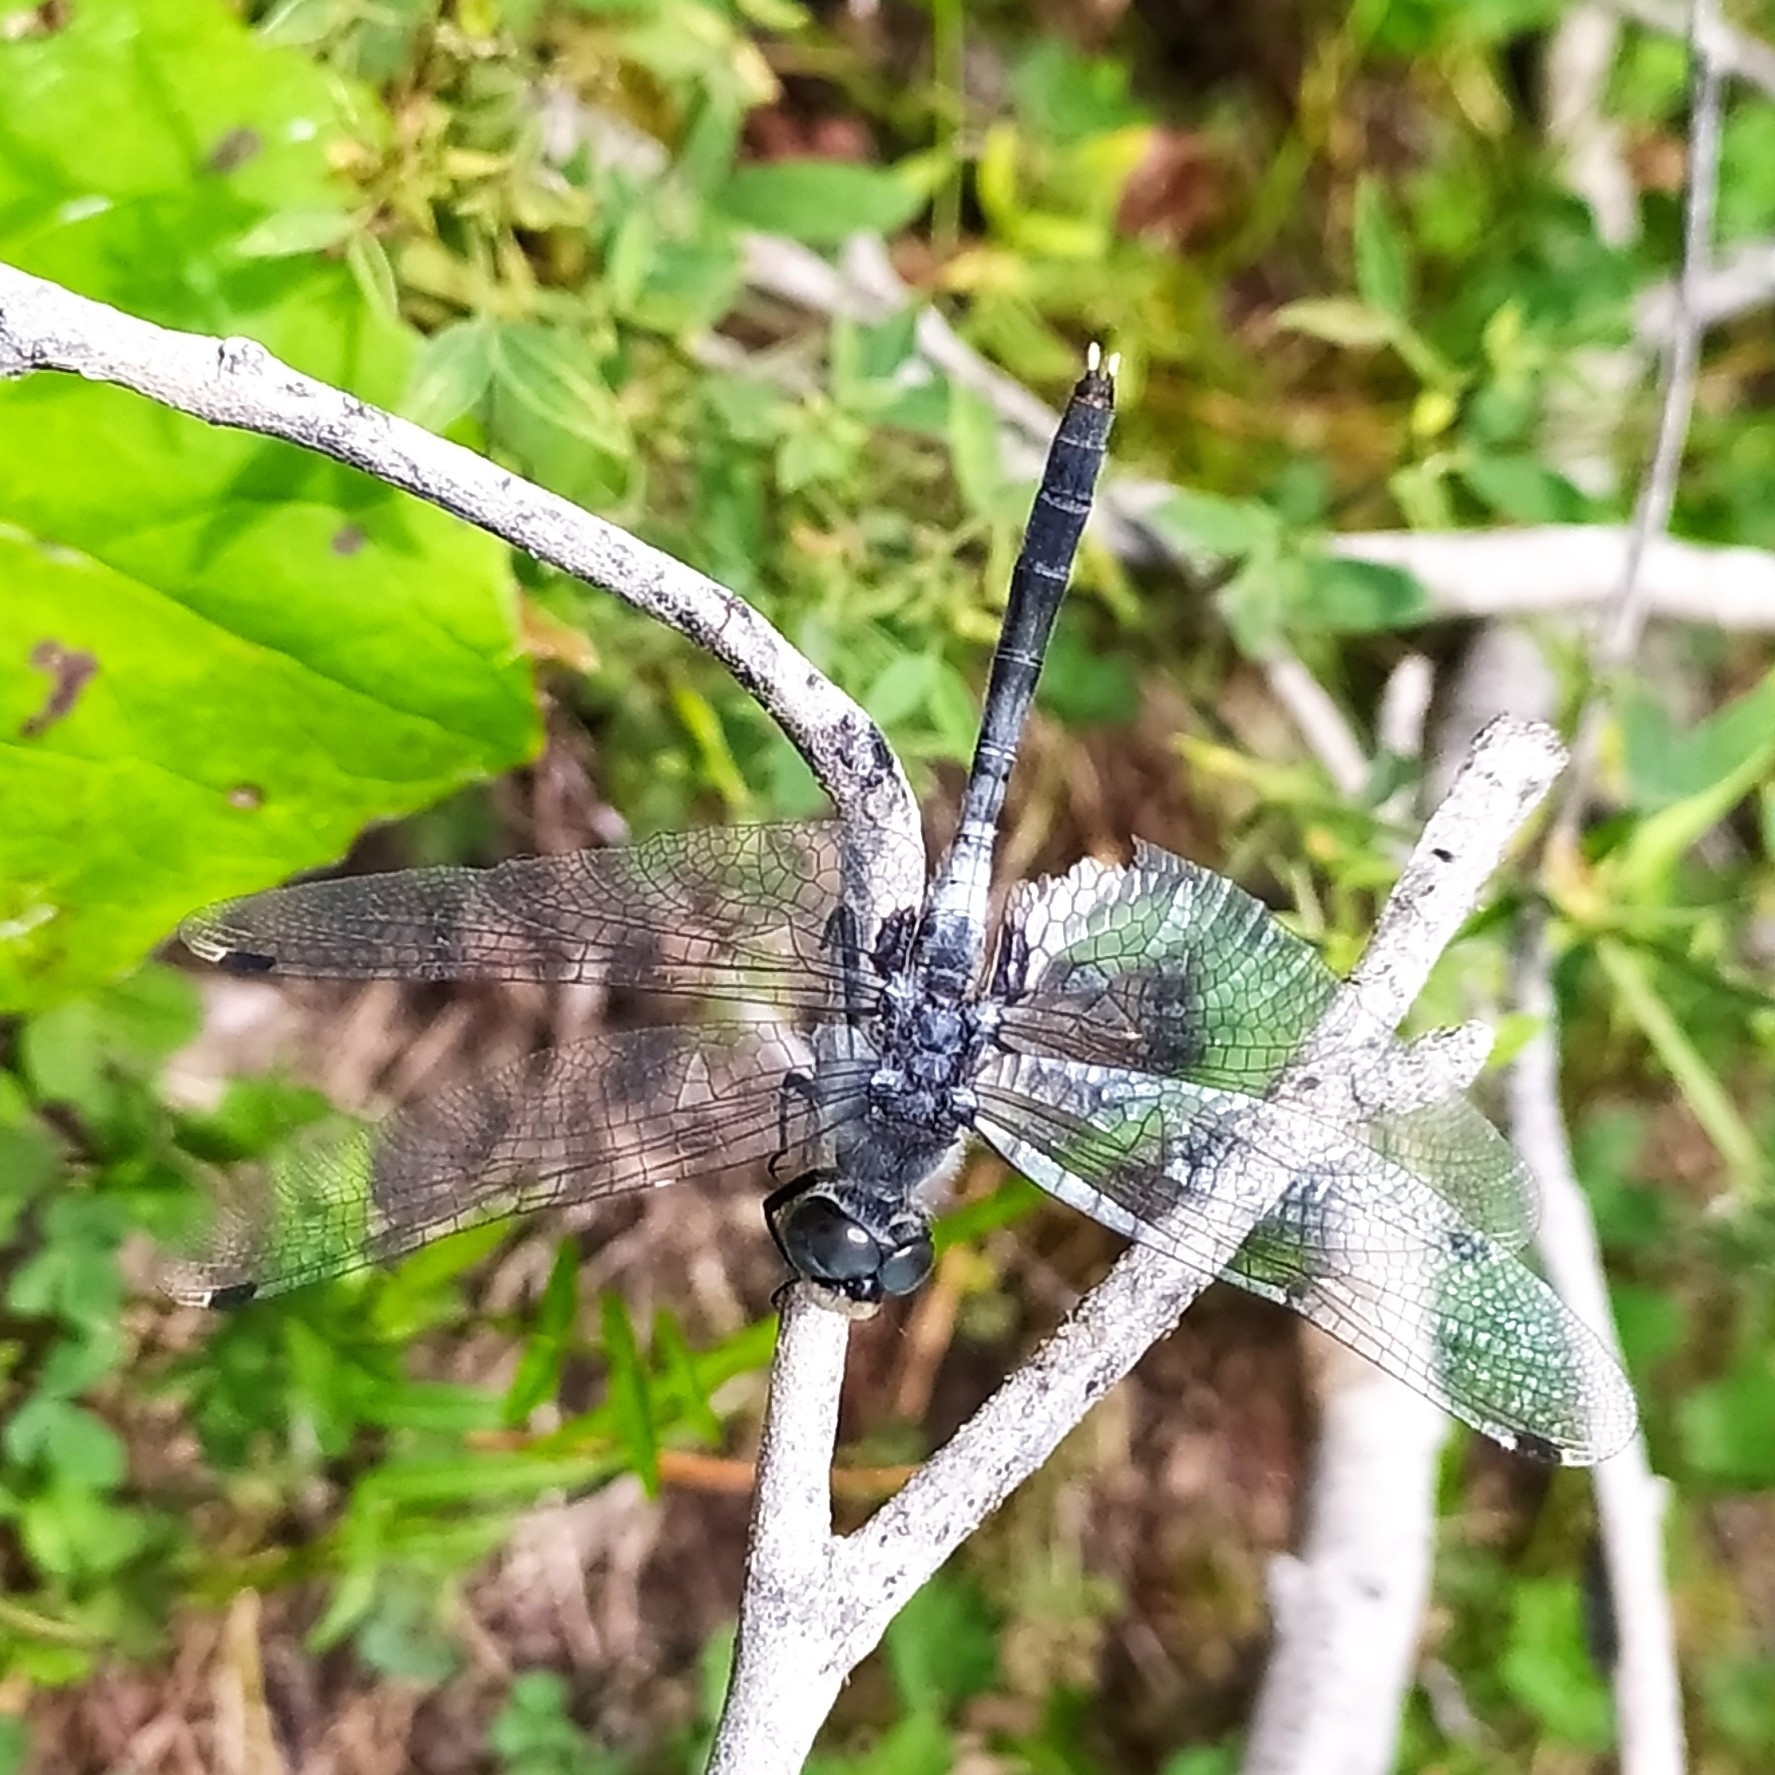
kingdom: Animalia
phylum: Arthropoda
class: Insecta
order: Odonata
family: Libellulidae
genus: Leucorrhinia
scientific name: Leucorrhinia albifrons
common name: Dark whiteface
